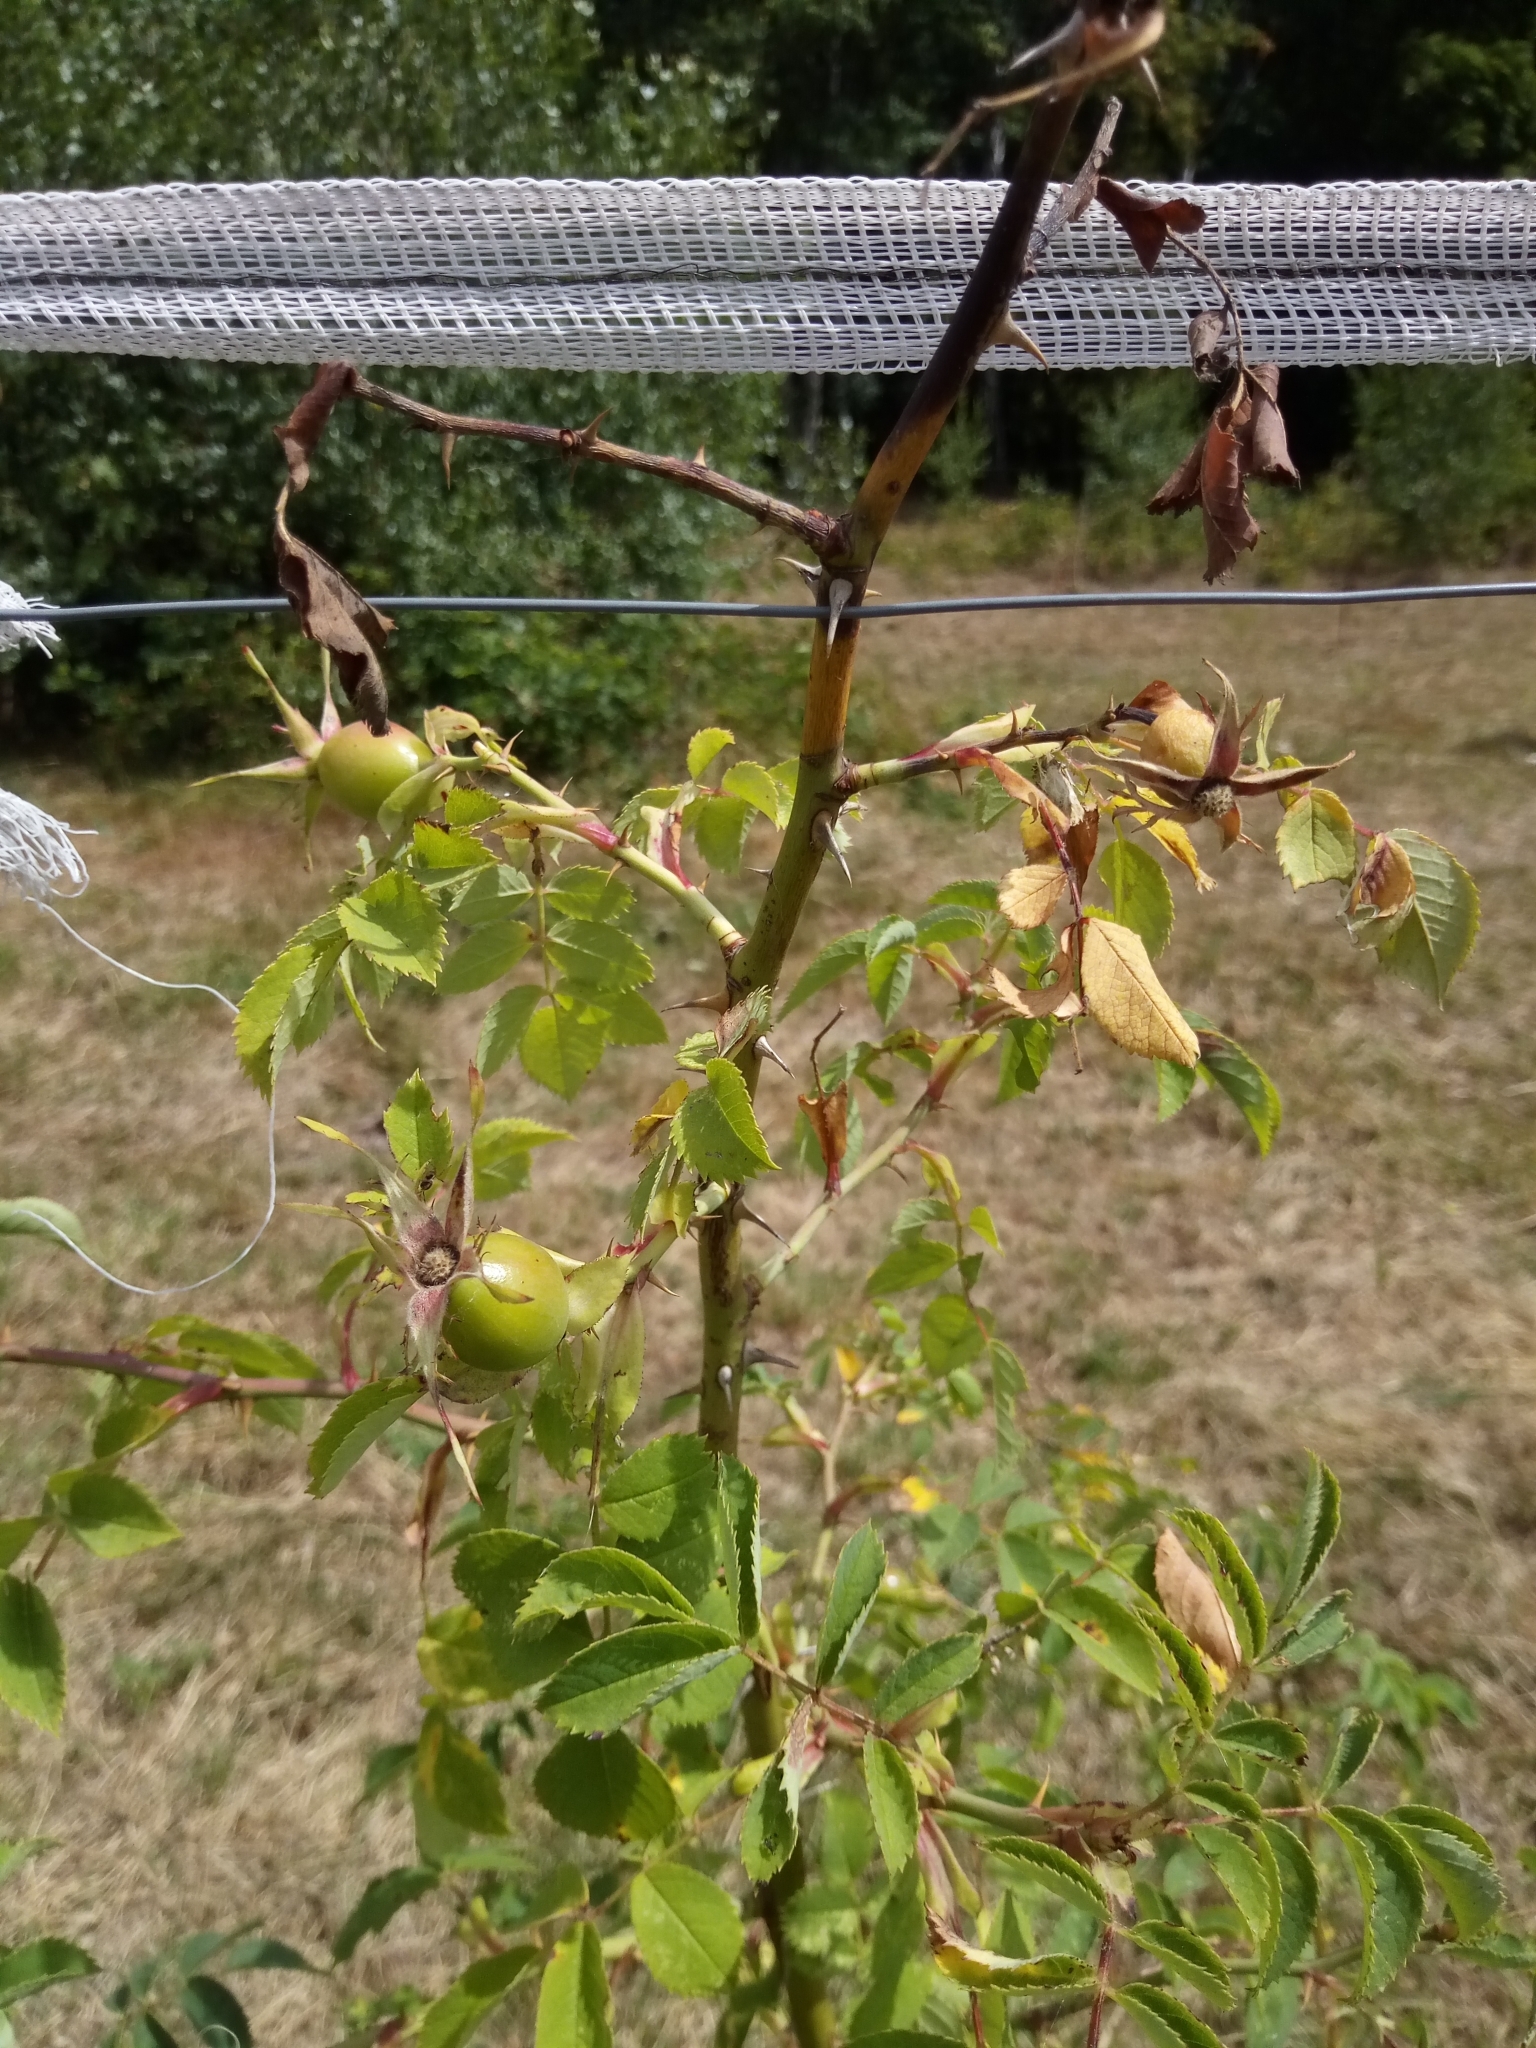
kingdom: Plantae
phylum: Tracheophyta
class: Magnoliopsida
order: Rosales
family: Rosaceae
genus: Rosa
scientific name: Rosa dumalis
